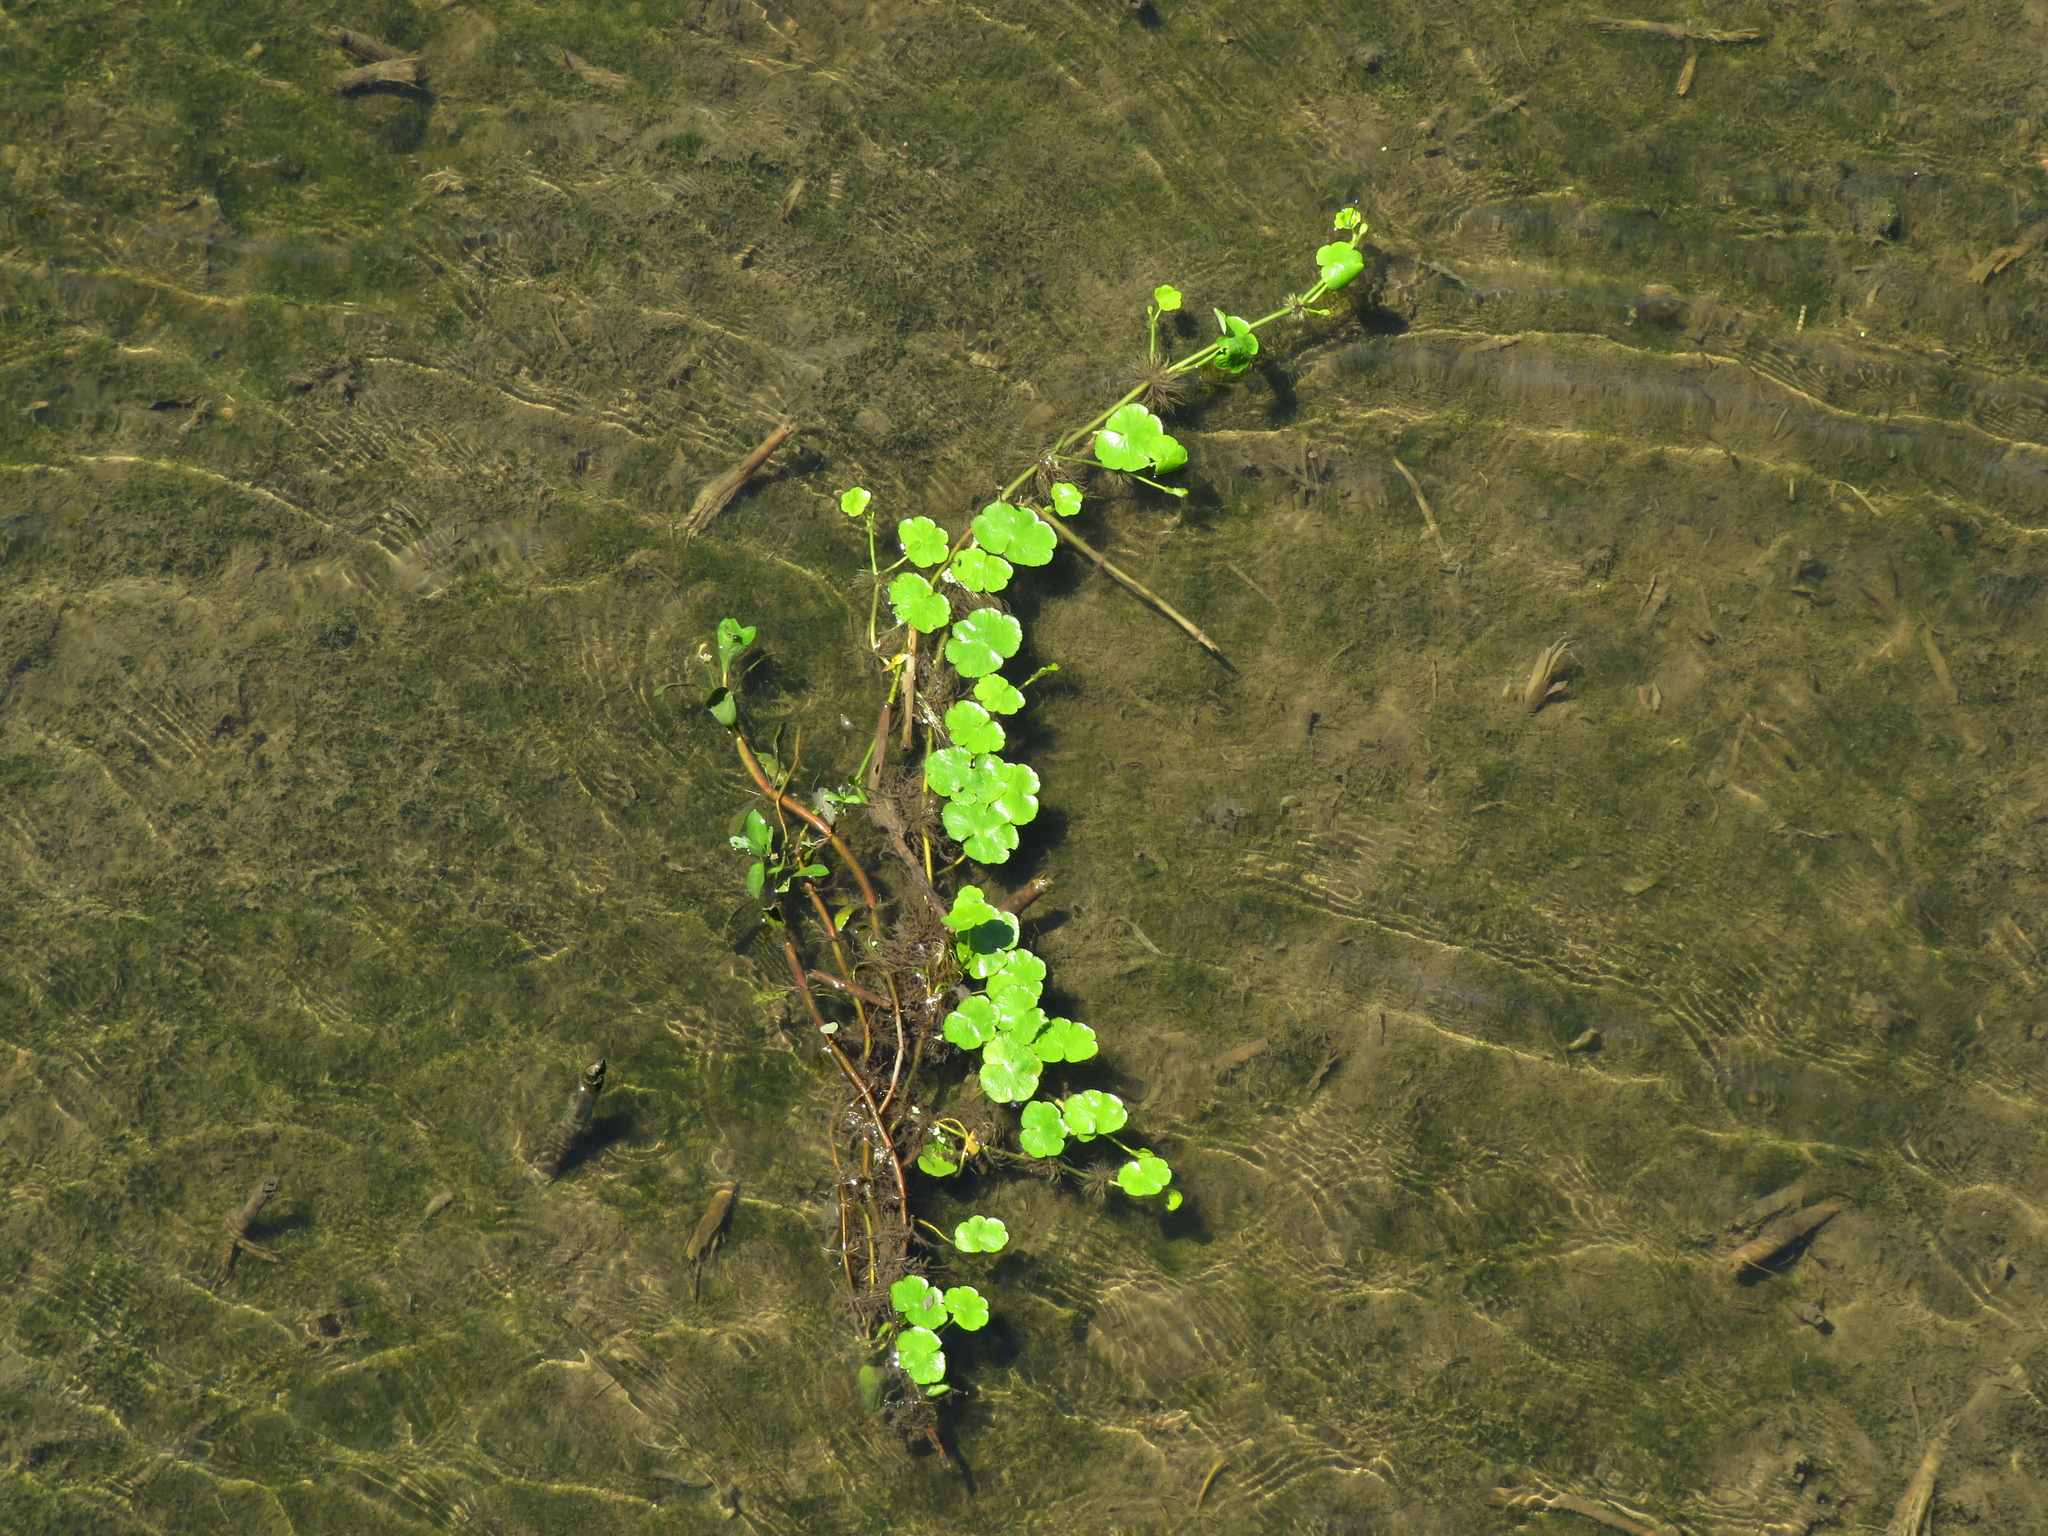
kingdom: Plantae
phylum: Tracheophyta
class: Magnoliopsida
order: Apiales
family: Araliaceae
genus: Hydrocotyle
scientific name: Hydrocotyle ranunculoides
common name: Floating pennywort
